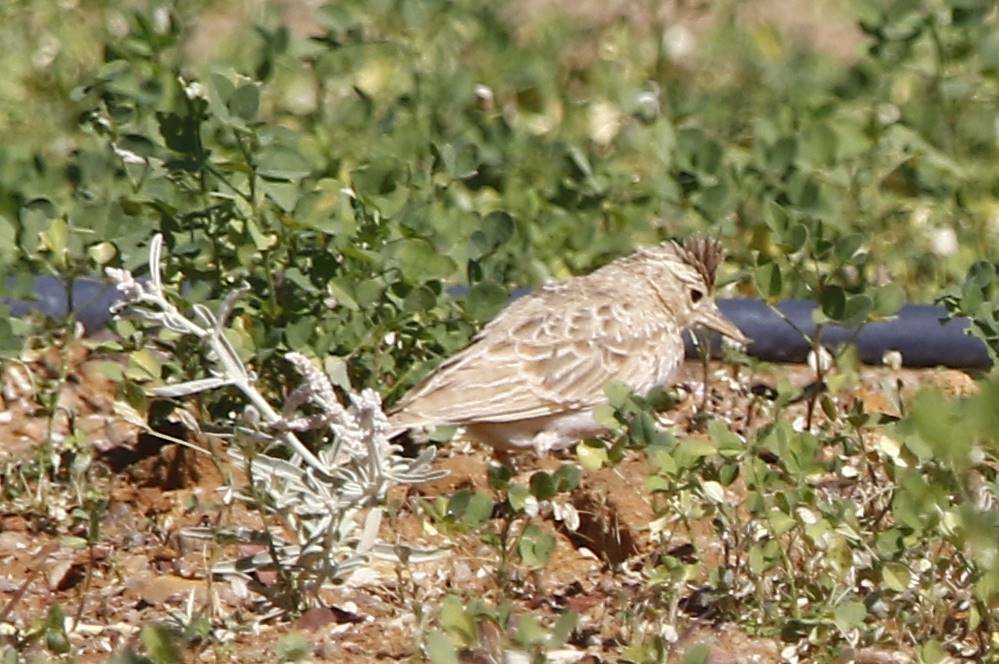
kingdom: Animalia
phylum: Chordata
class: Aves
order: Passeriformes
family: Alaudidae
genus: Galerida
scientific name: Galerida cristata
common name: Crested lark
